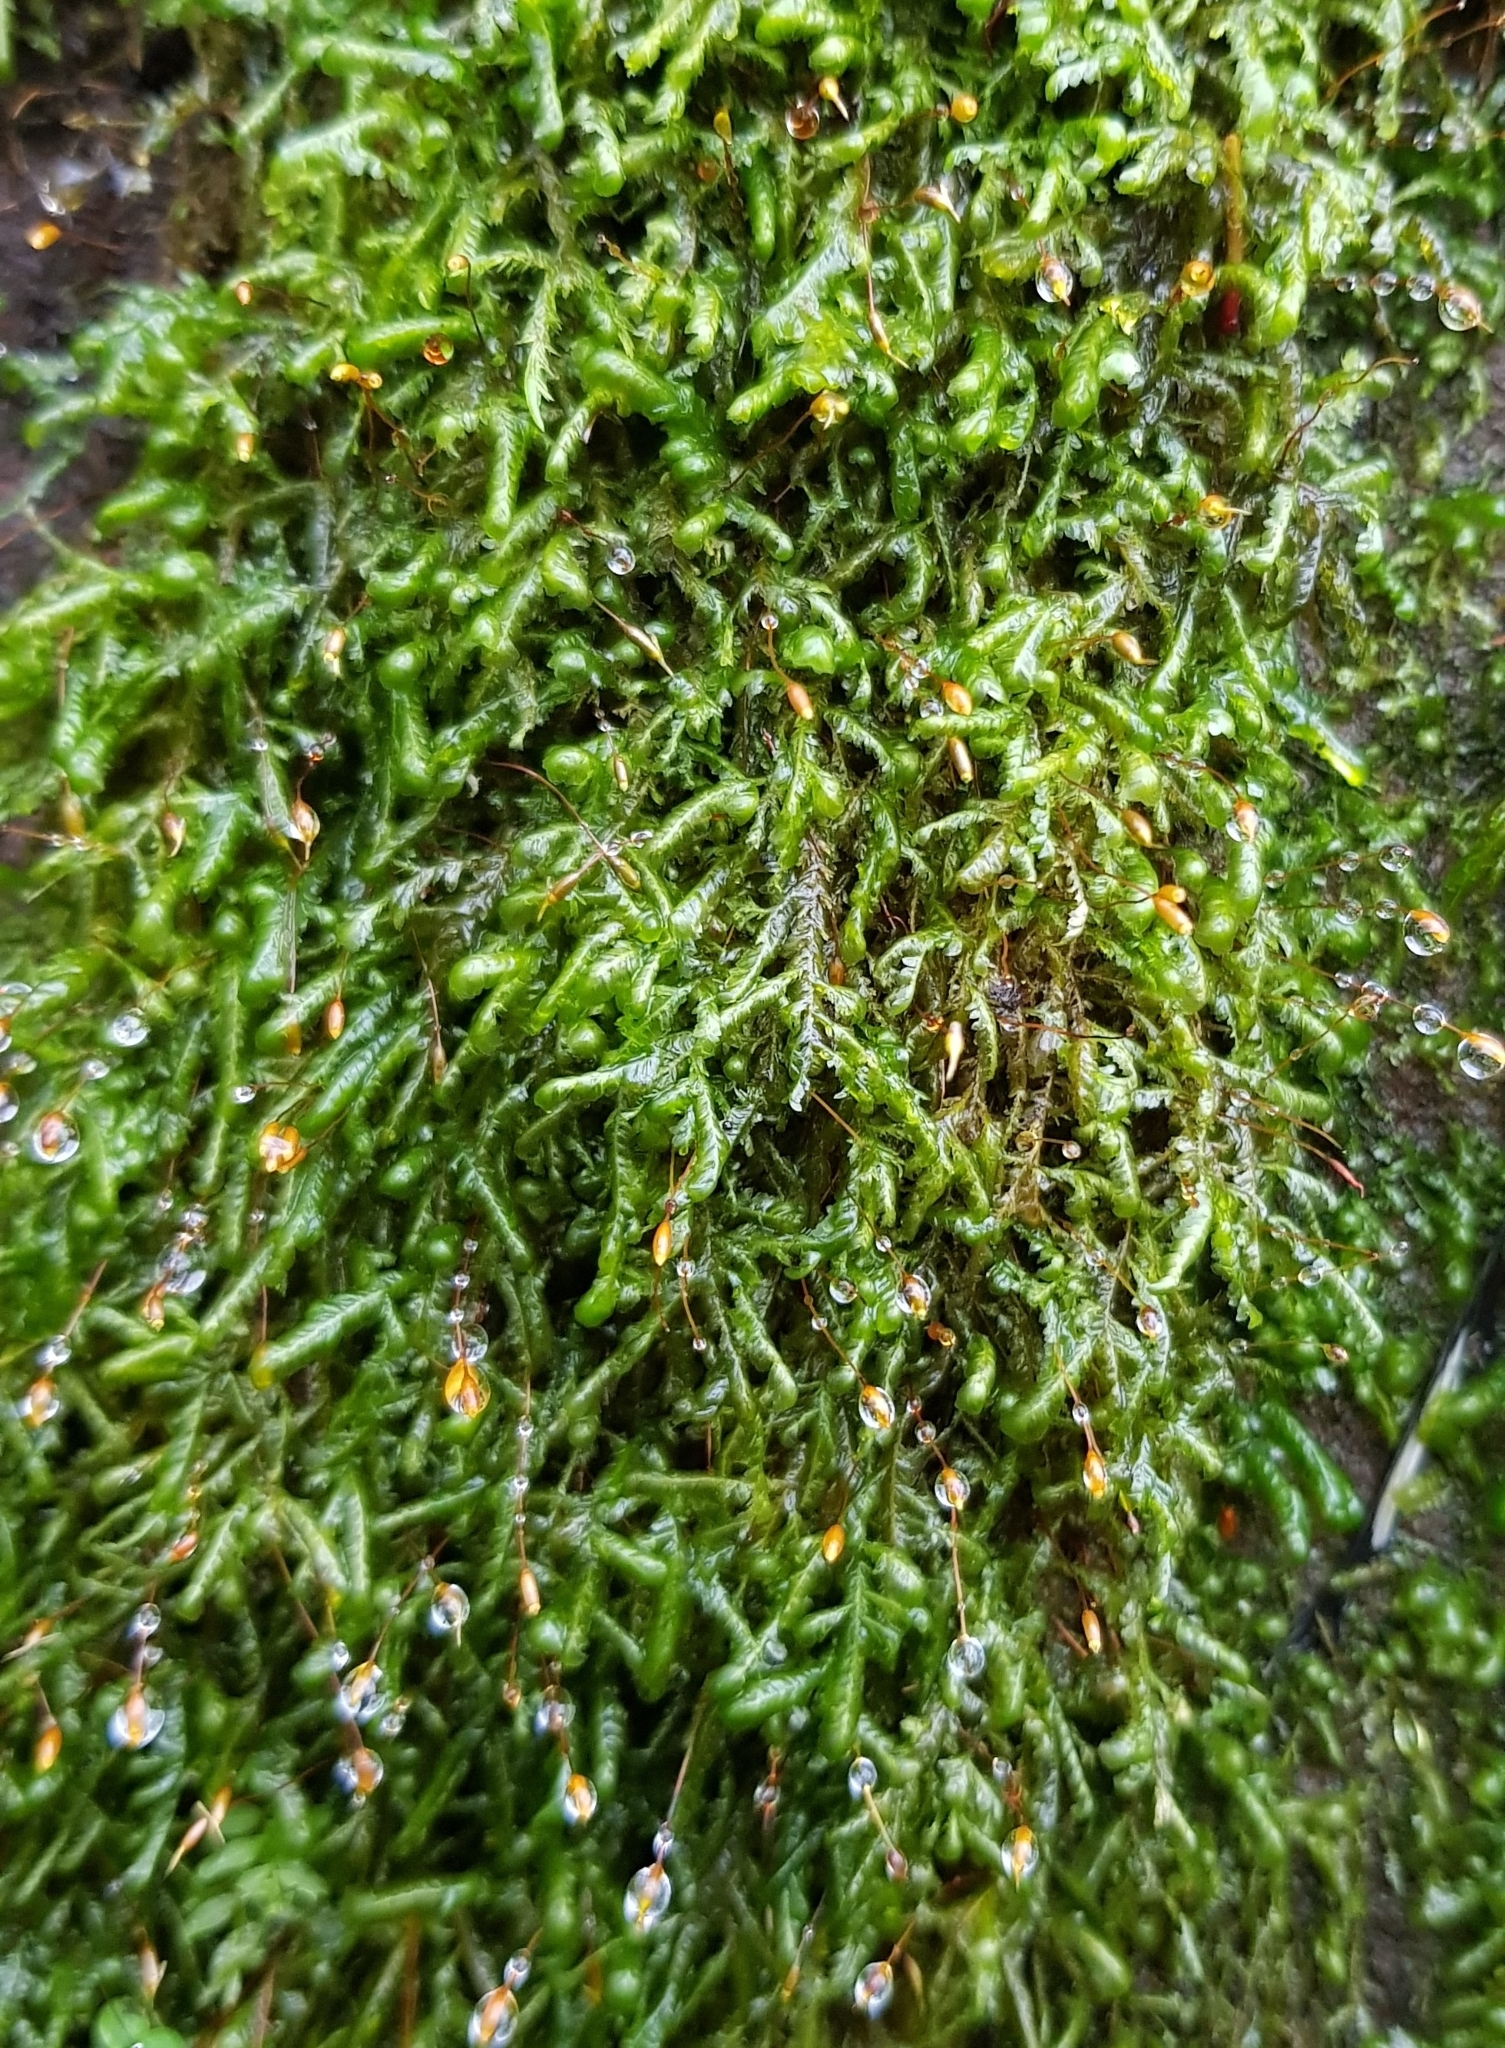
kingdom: Plantae
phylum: Bryophyta
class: Bryopsida
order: Hypnales
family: Neckeraceae
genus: Homalia
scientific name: Homalia trichomanoides
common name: Lime homalia moss
